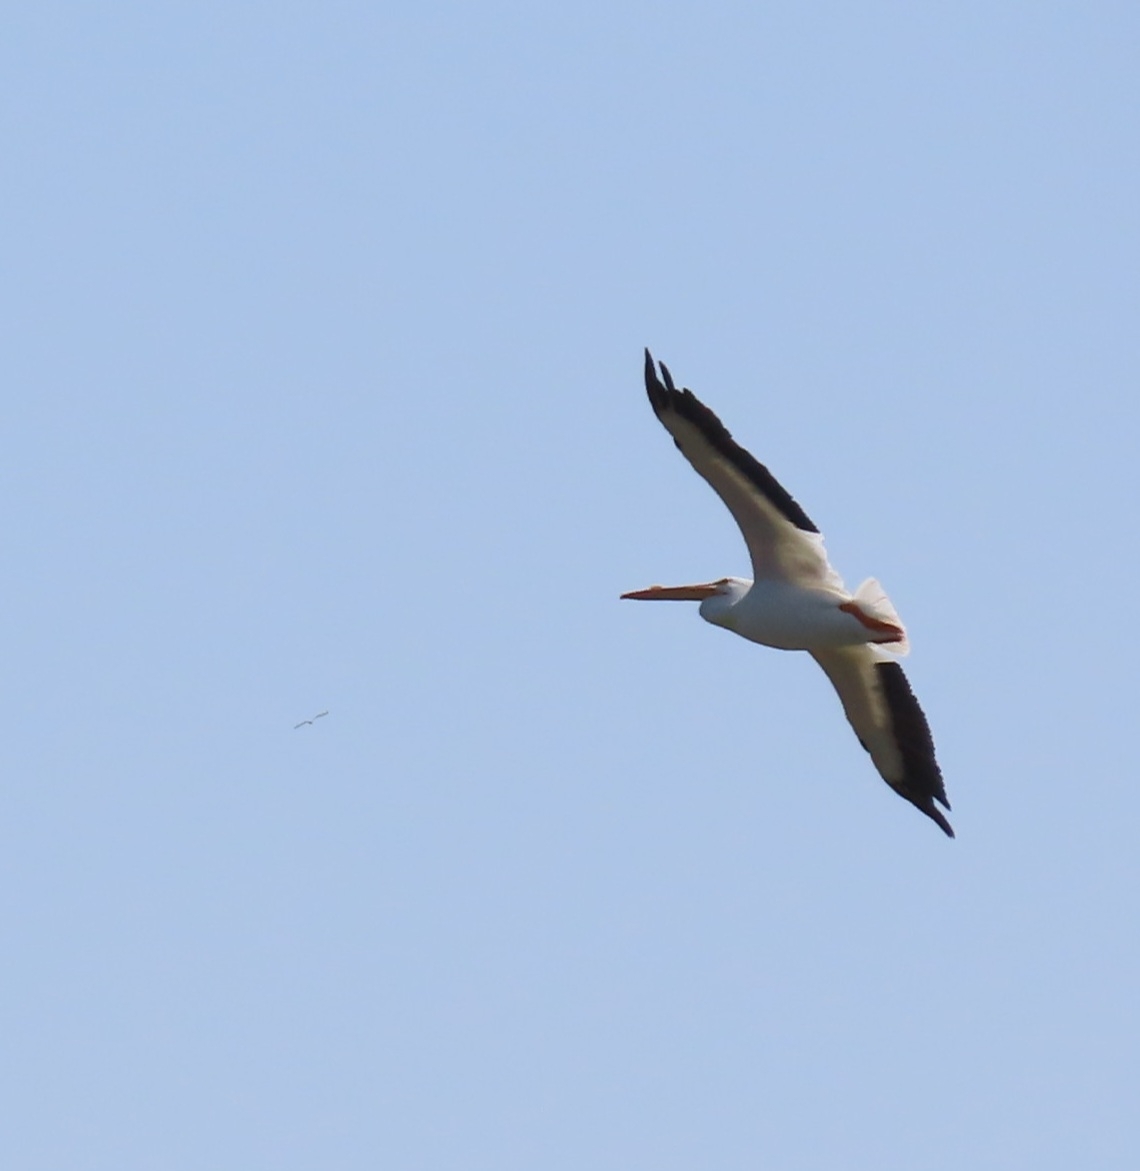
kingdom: Animalia
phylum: Chordata
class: Aves
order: Pelecaniformes
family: Pelecanidae
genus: Pelecanus
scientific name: Pelecanus erythrorhynchos
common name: American white pelican
